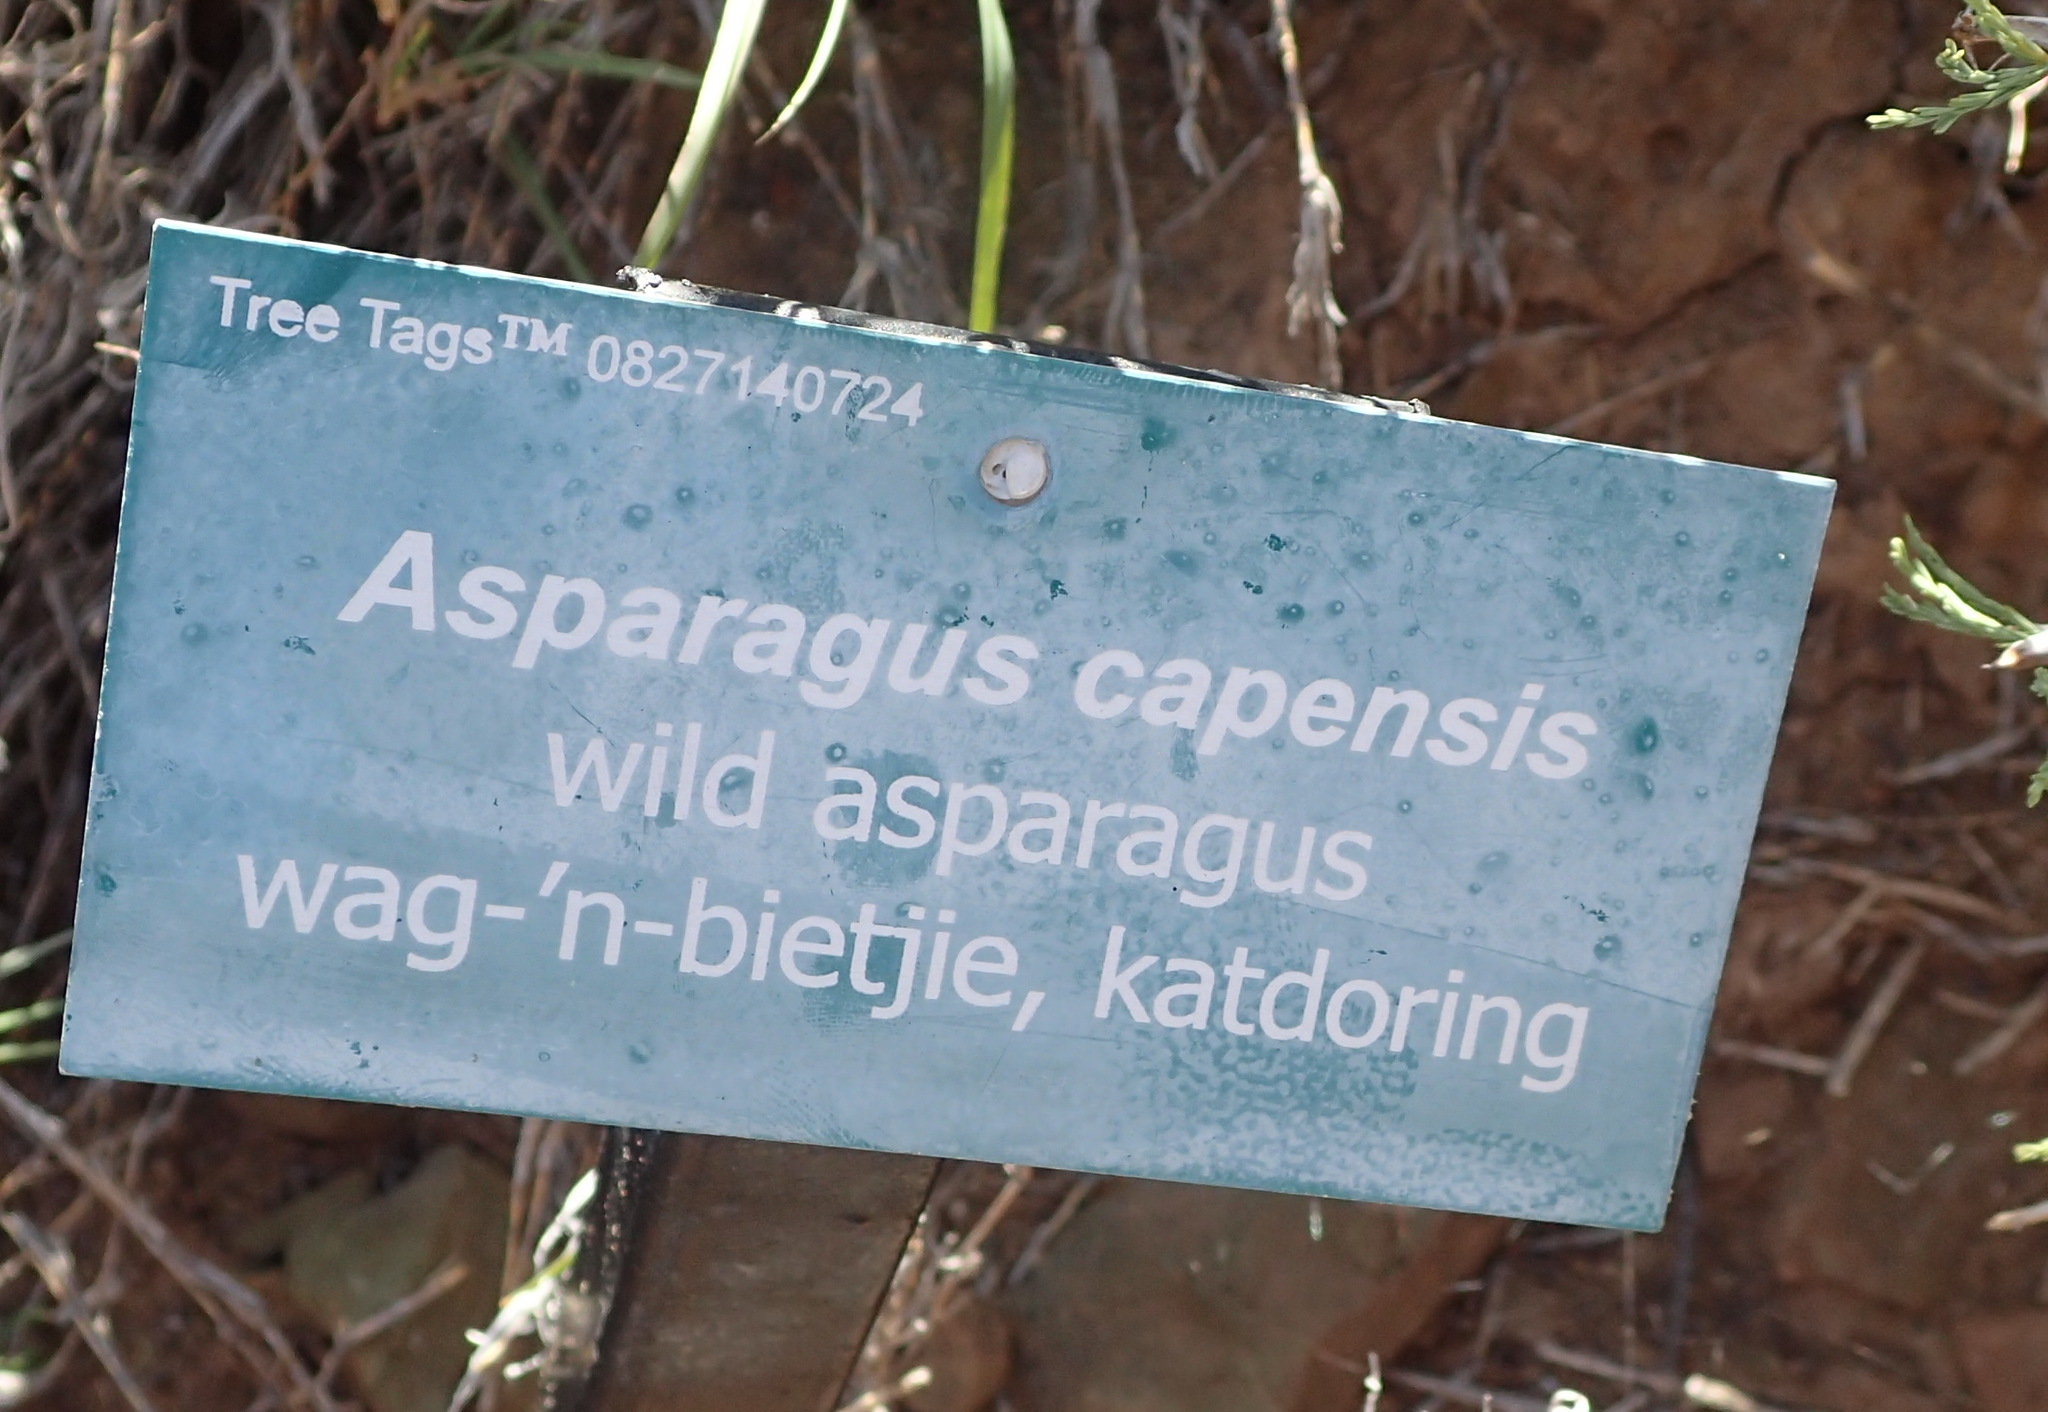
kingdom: Plantae
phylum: Tracheophyta
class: Liliopsida
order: Asparagales
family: Asparagaceae
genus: Asparagus
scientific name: Asparagus burchellii
